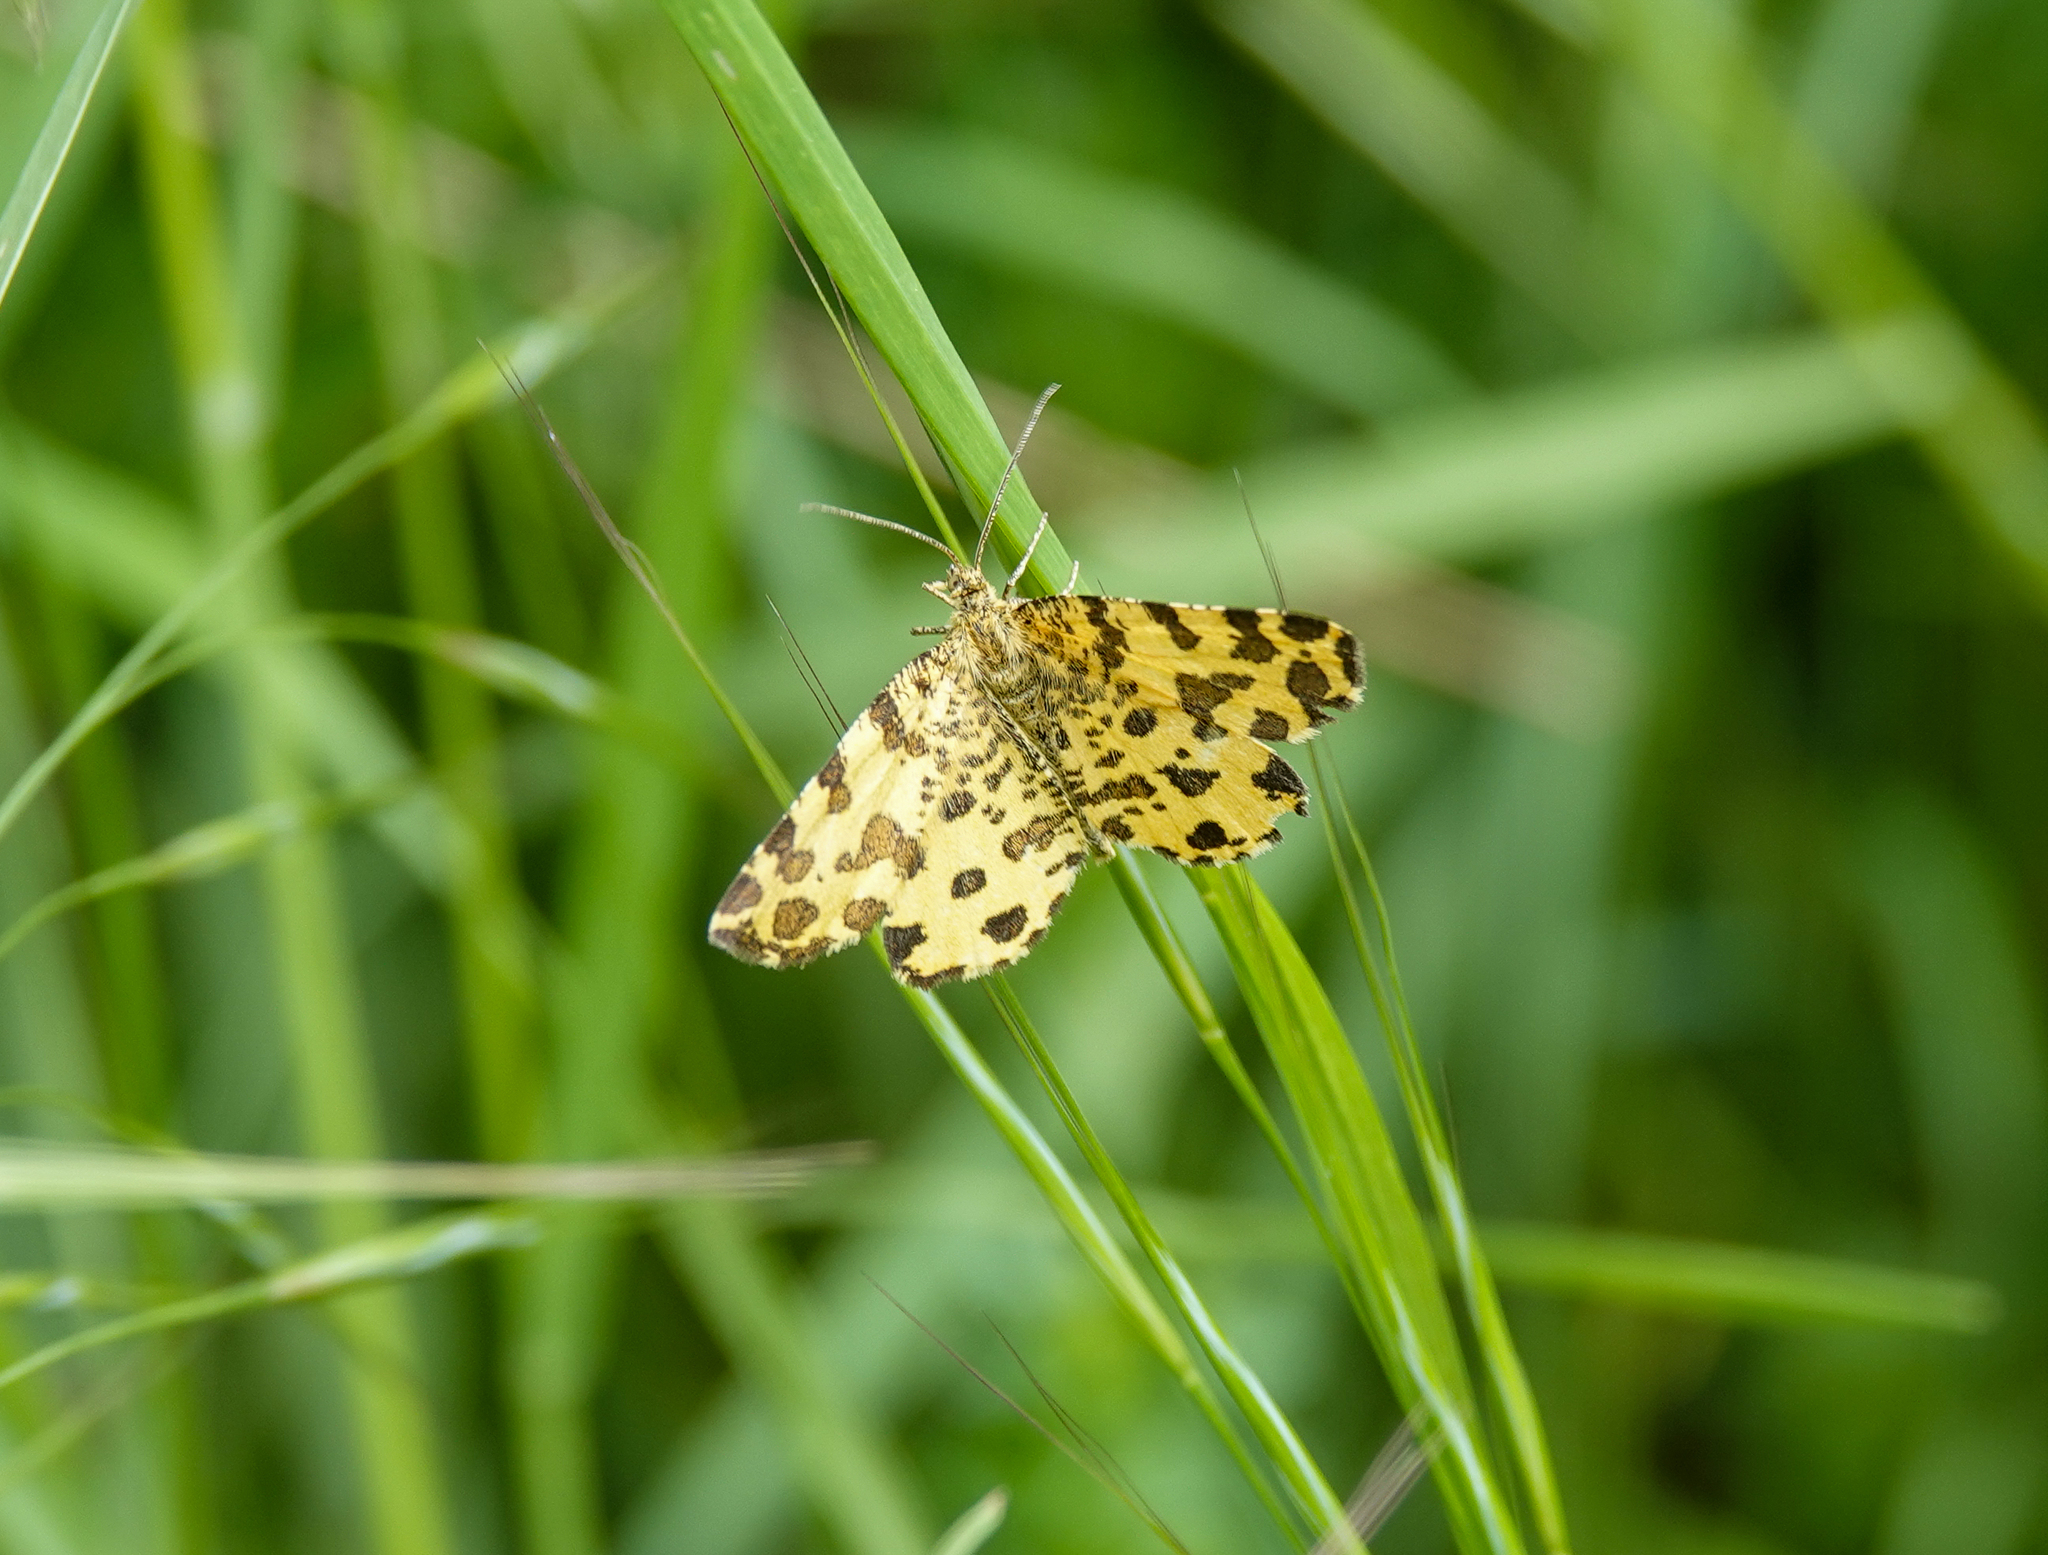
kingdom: Animalia
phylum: Arthropoda
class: Insecta
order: Lepidoptera
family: Geometridae
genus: Pseudopanthera
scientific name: Pseudopanthera macularia
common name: Speckled yellow
